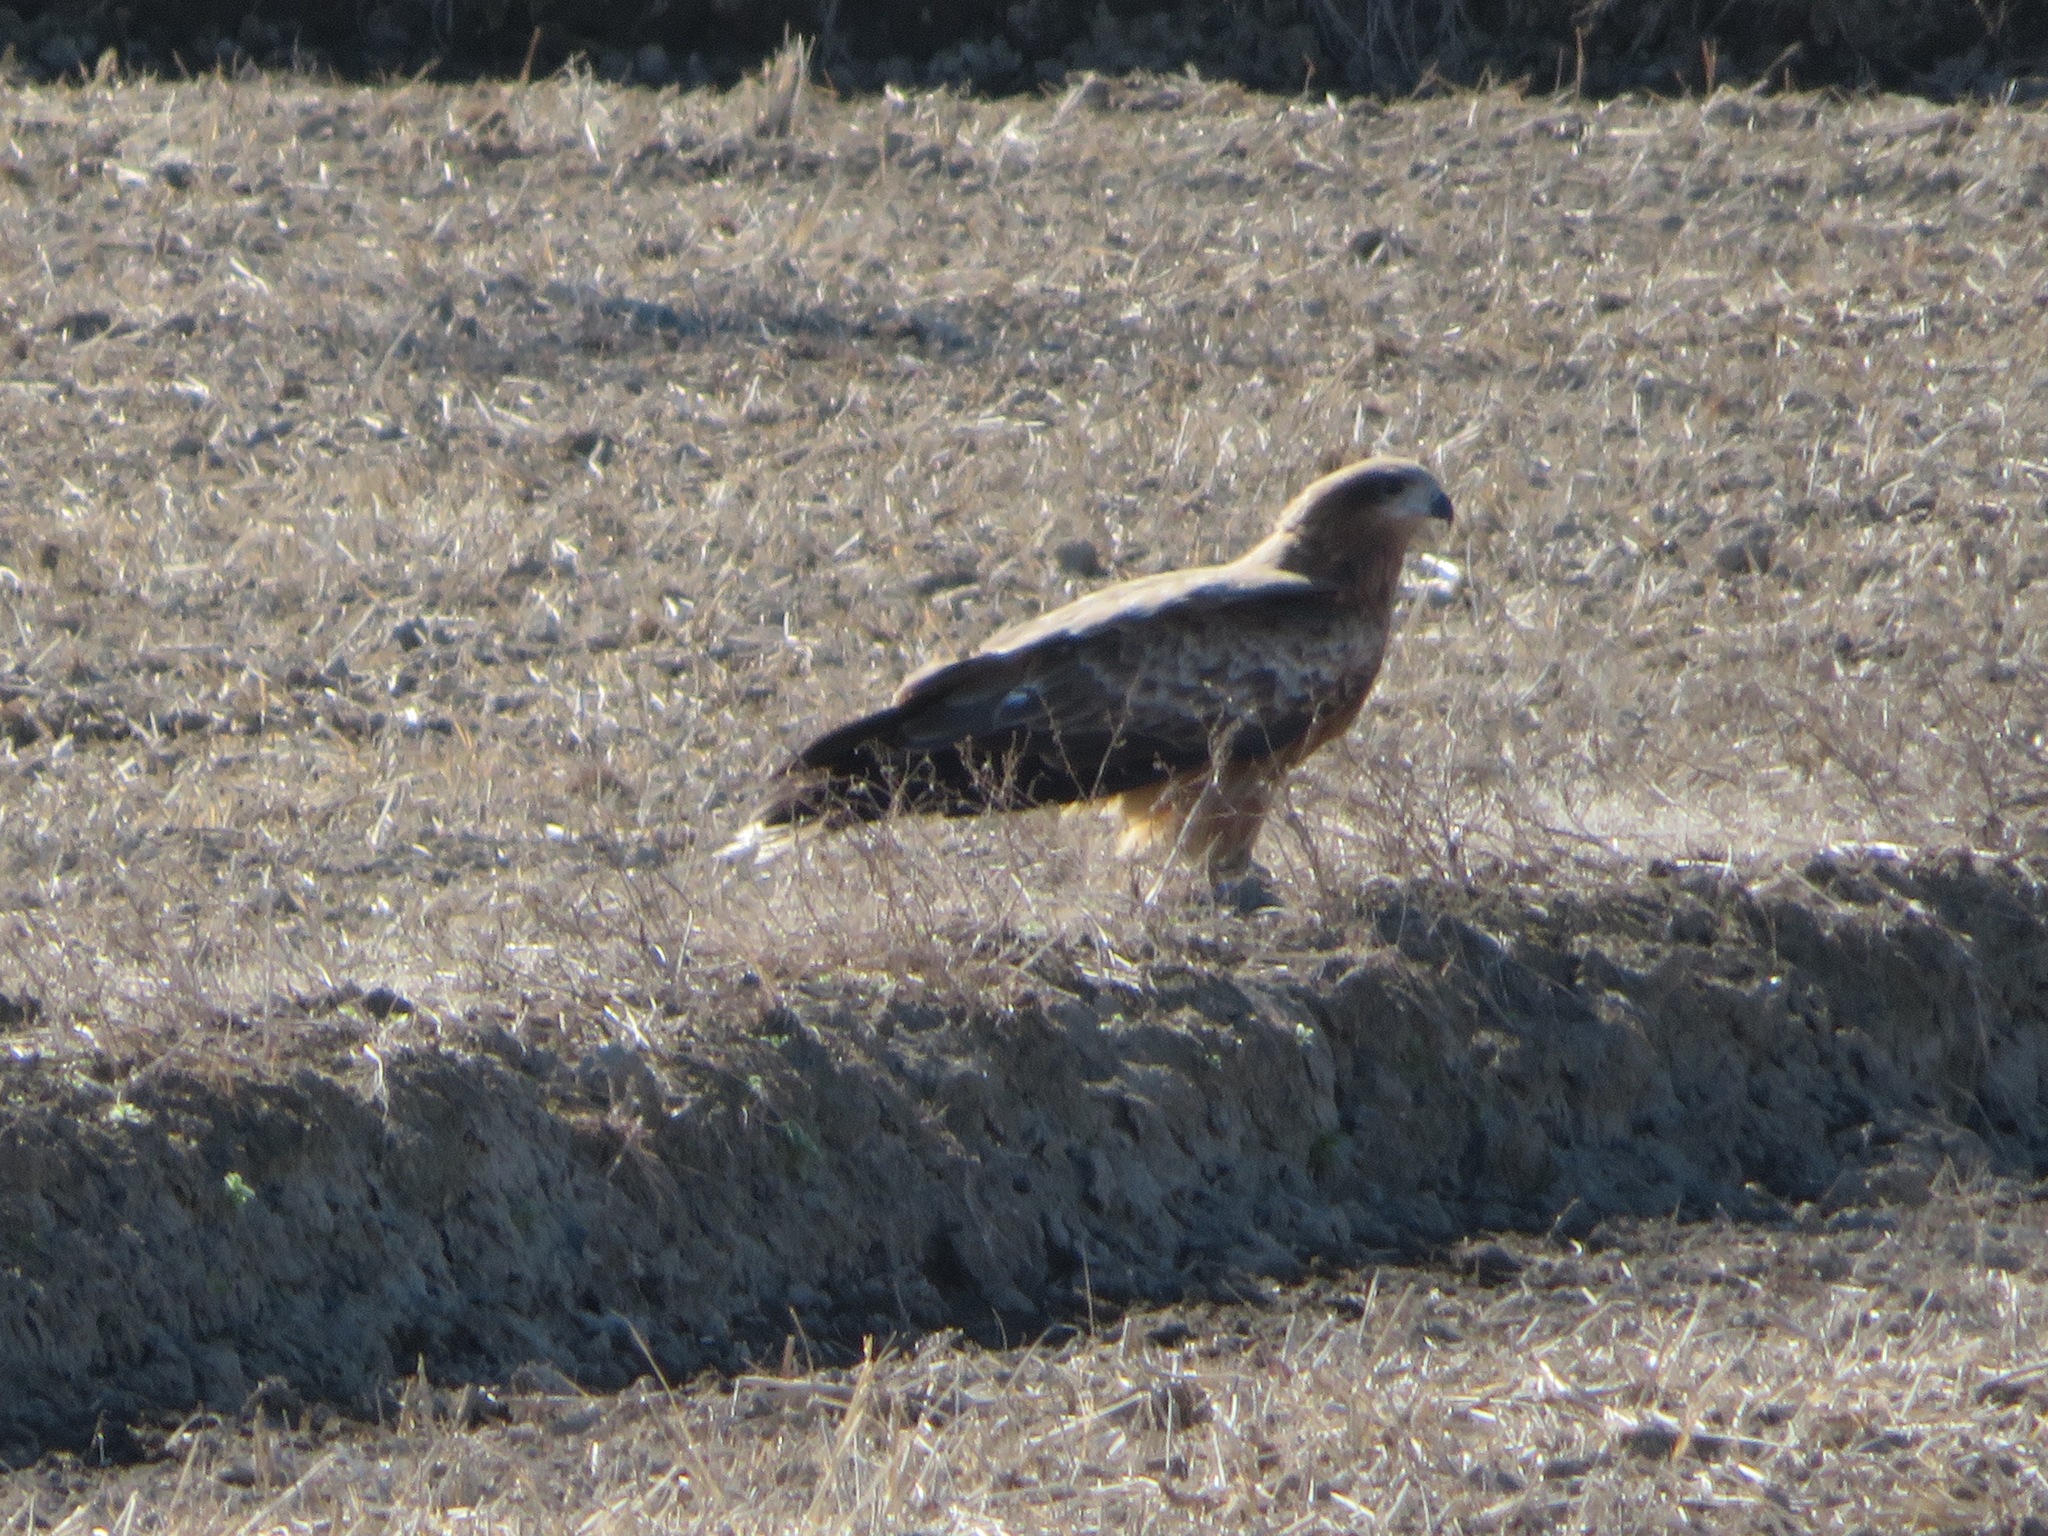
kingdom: Animalia
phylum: Chordata
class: Aves
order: Accipitriformes
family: Accipitridae
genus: Milvus
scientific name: Milvus migrans
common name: Black kite
